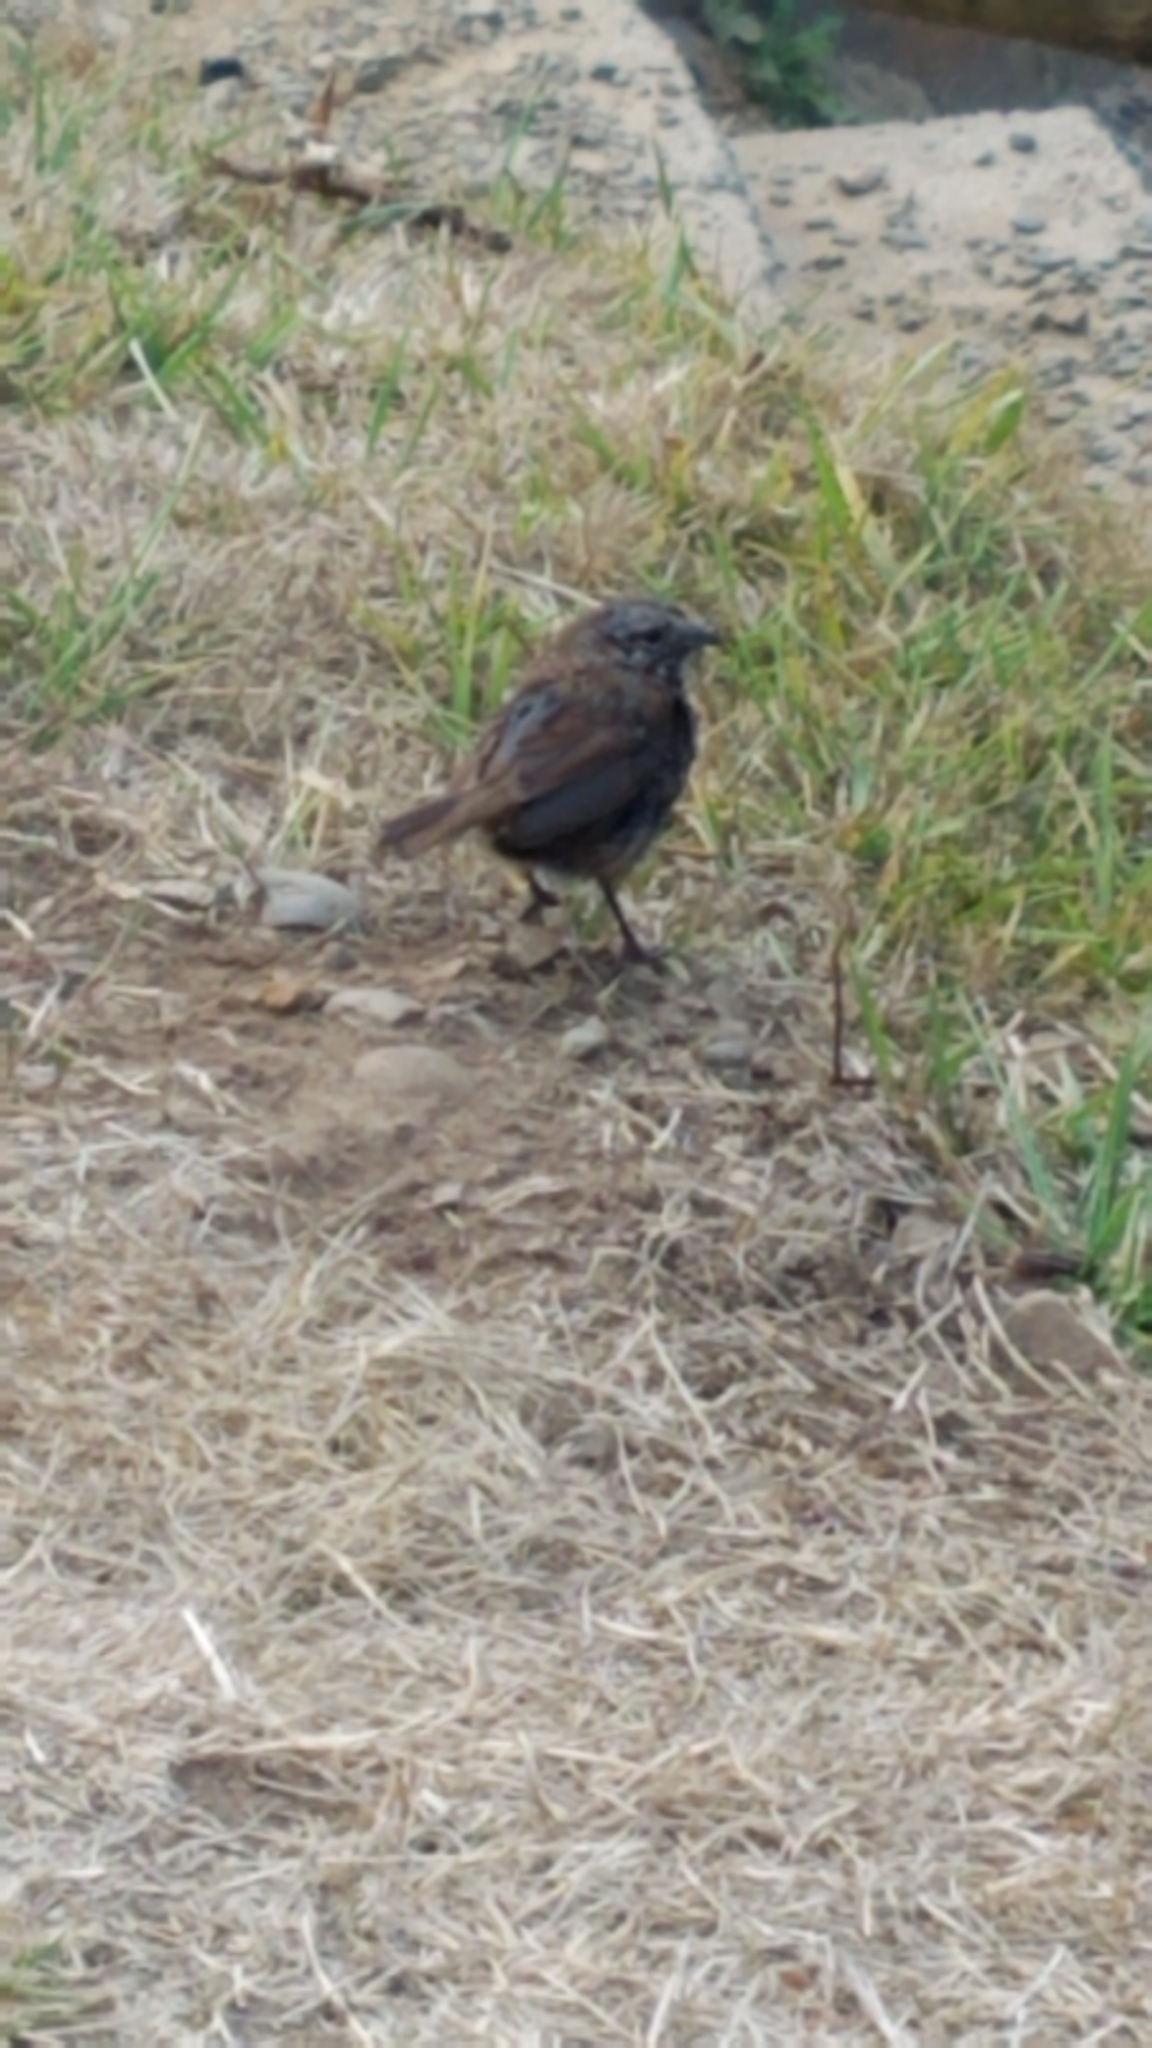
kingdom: Animalia
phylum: Chordata
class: Aves
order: Passeriformes
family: Passerellidae
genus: Melospiza
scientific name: Melospiza melodia
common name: Song sparrow
